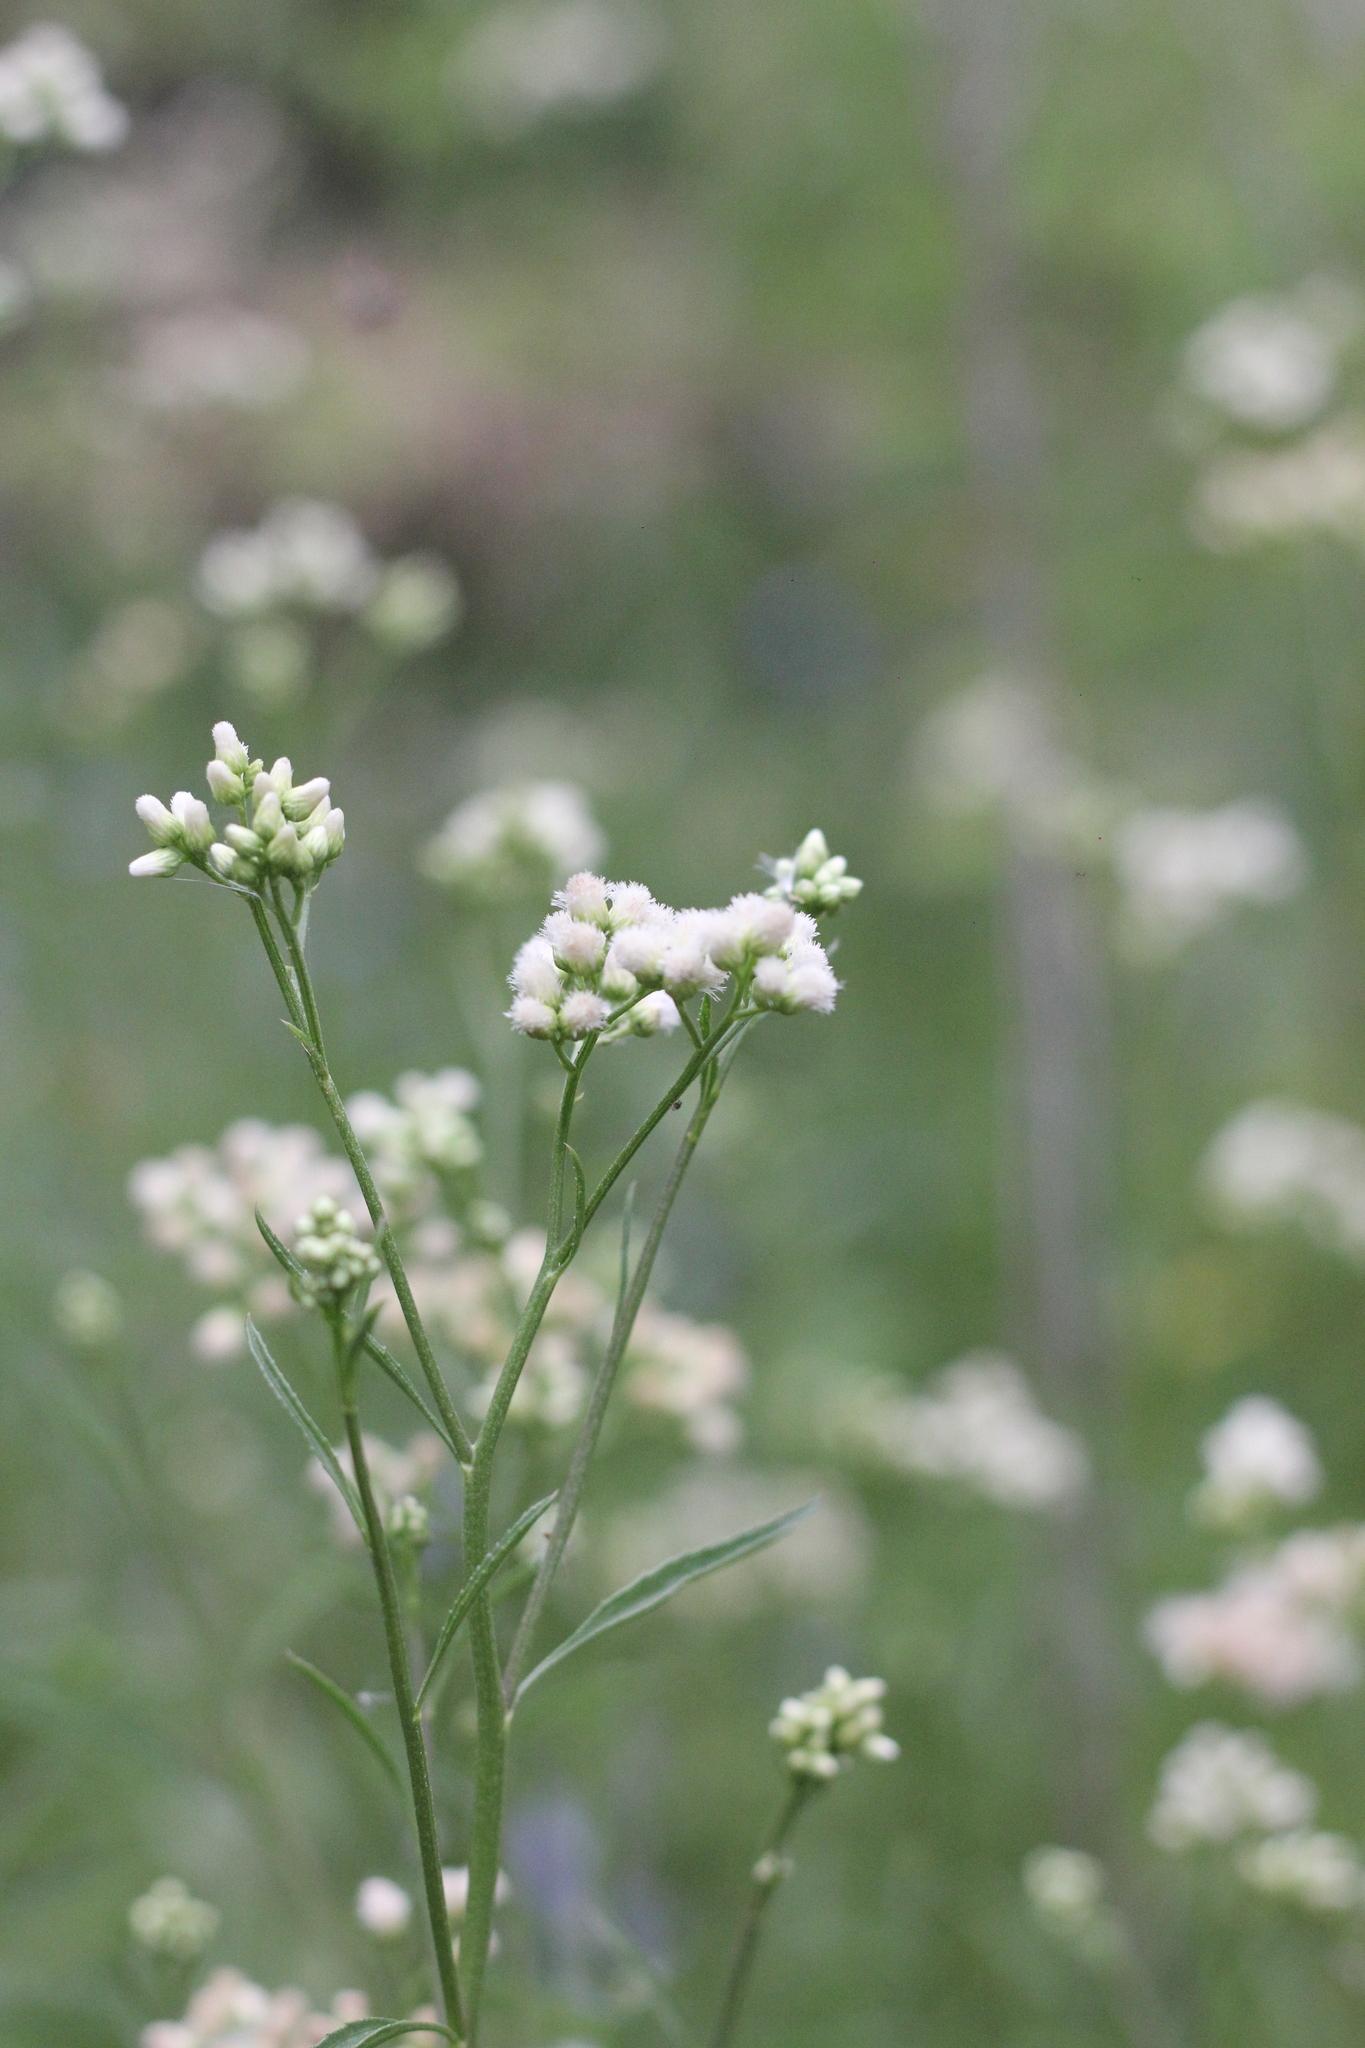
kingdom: Plantae
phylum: Tracheophyta
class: Magnoliopsida
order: Asterales
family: Asteraceae
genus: Baccharis
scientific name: Baccharis glutinosa
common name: Saltmarsh baccharis
